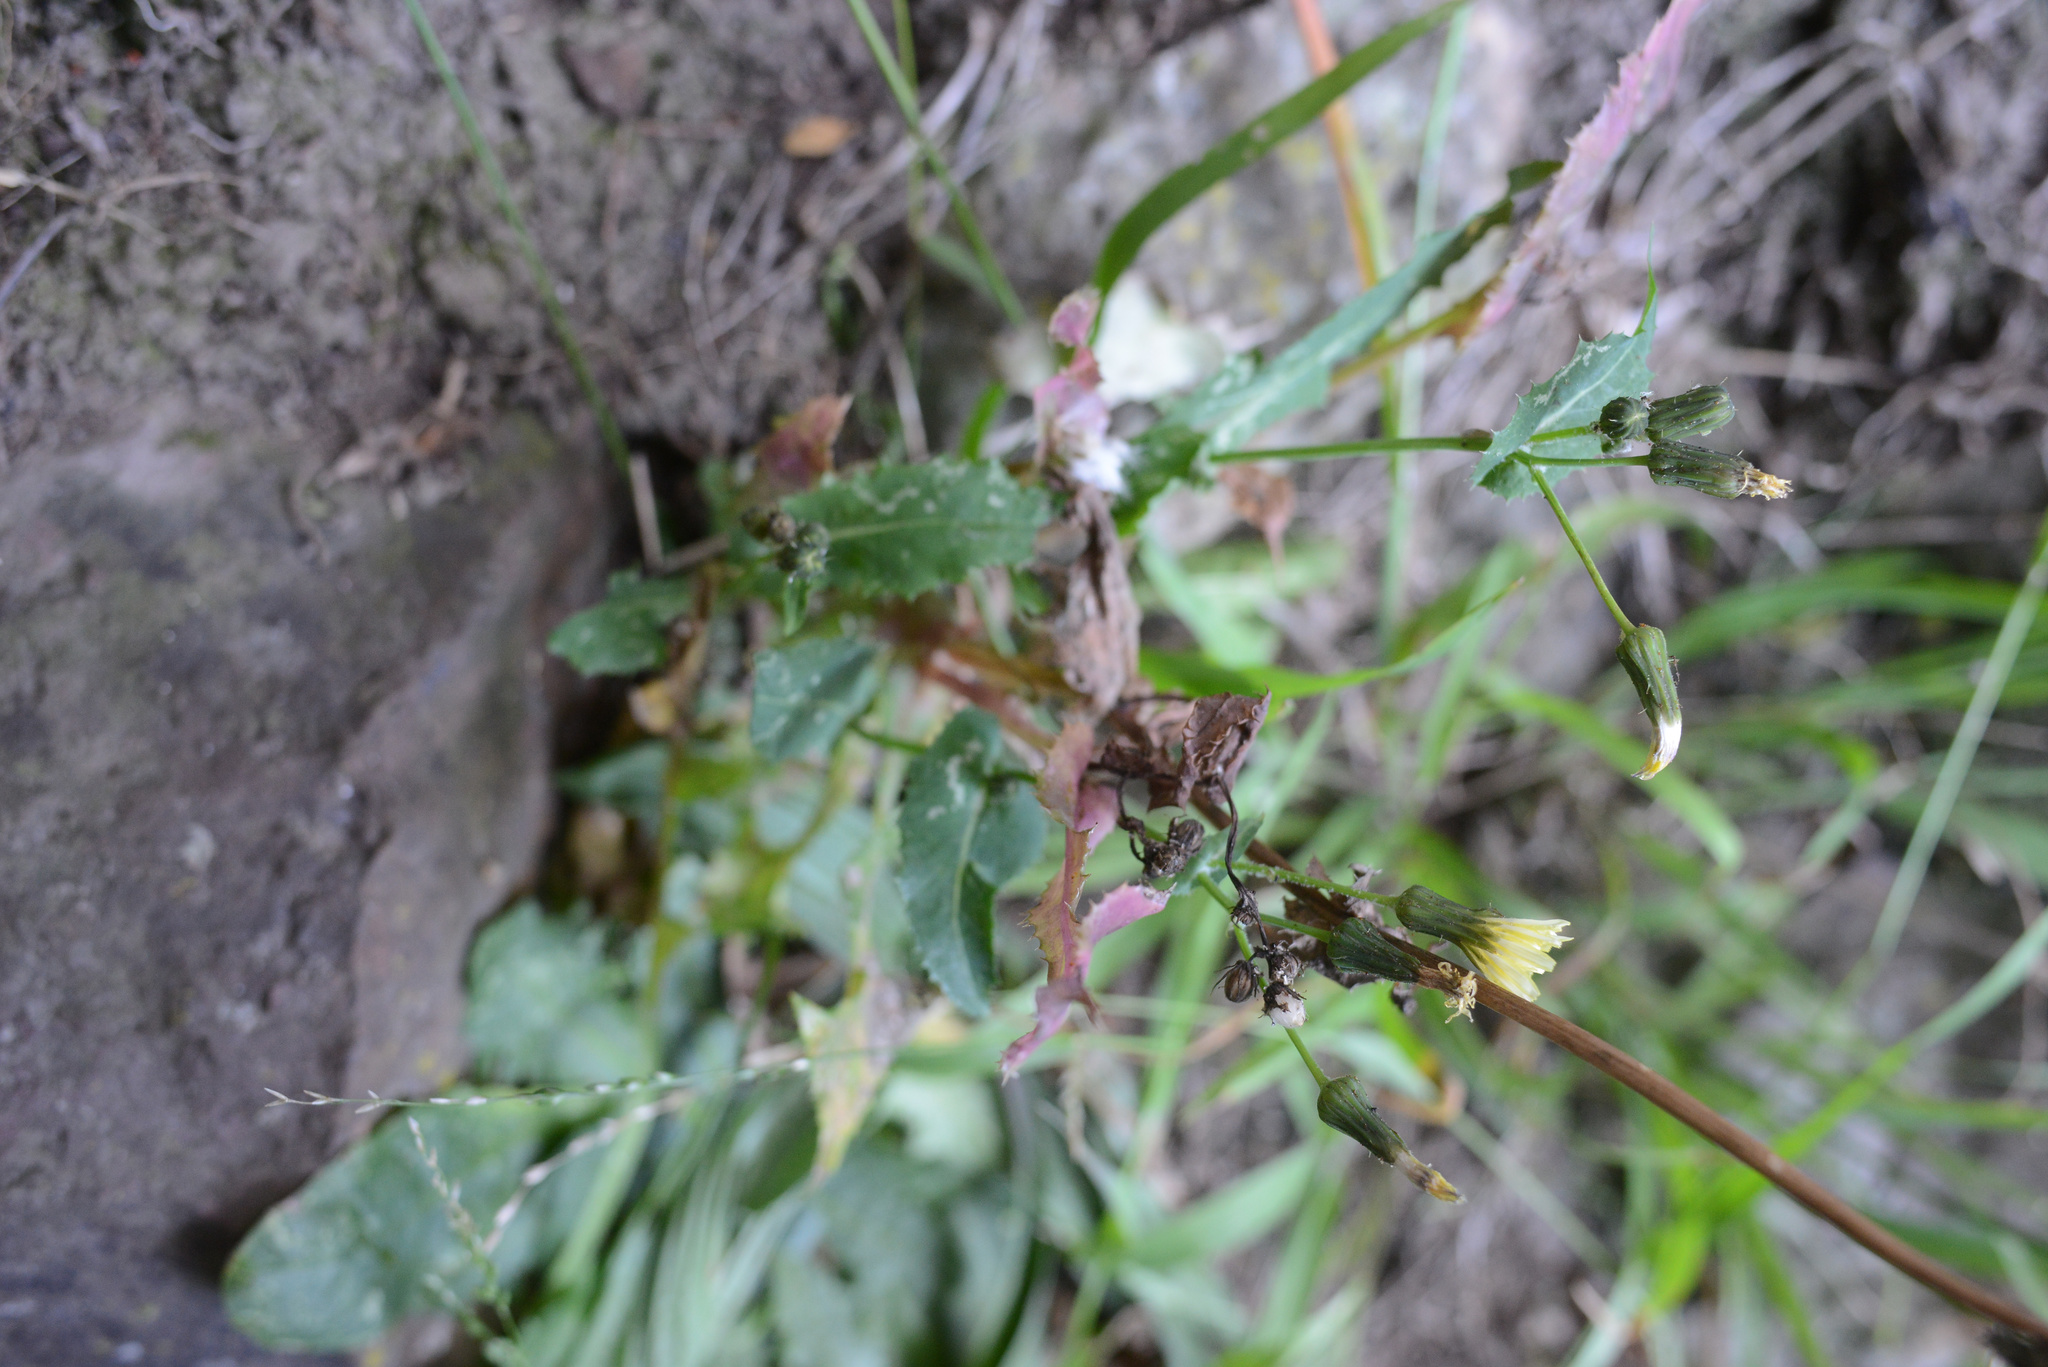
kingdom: Plantae
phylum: Tracheophyta
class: Magnoliopsida
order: Asterales
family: Asteraceae
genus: Sonchus
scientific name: Sonchus oleraceus
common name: Common sowthistle
